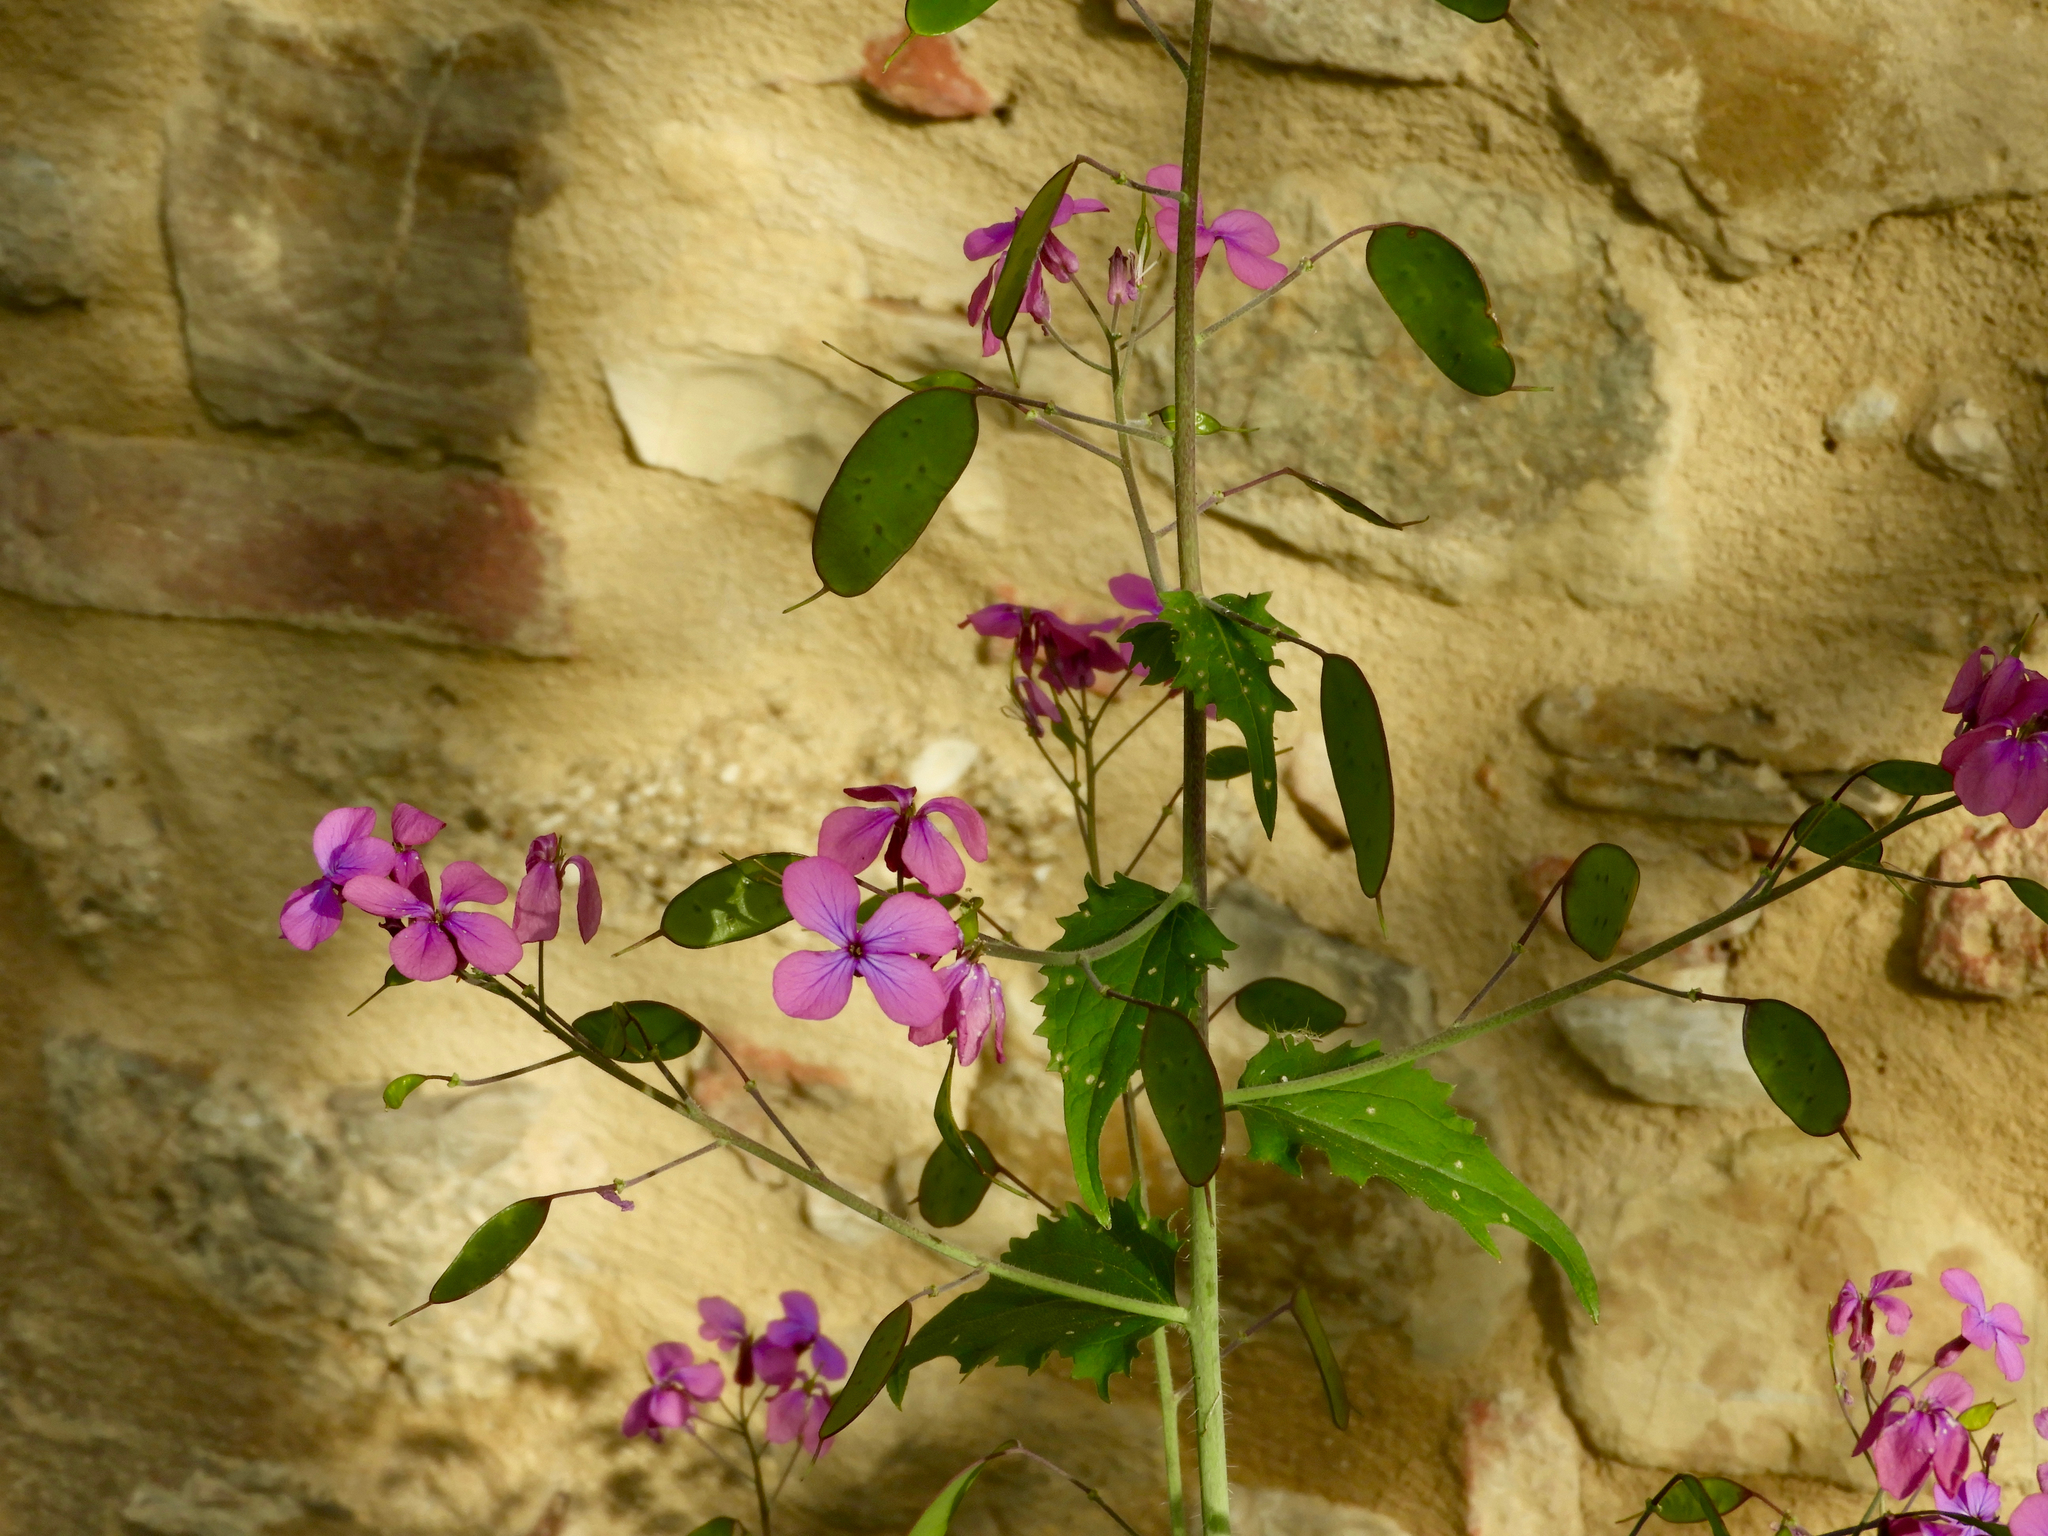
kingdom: Plantae
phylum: Tracheophyta
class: Magnoliopsida
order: Brassicales
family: Brassicaceae
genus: Lunaria
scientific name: Lunaria annua
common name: Honesty
